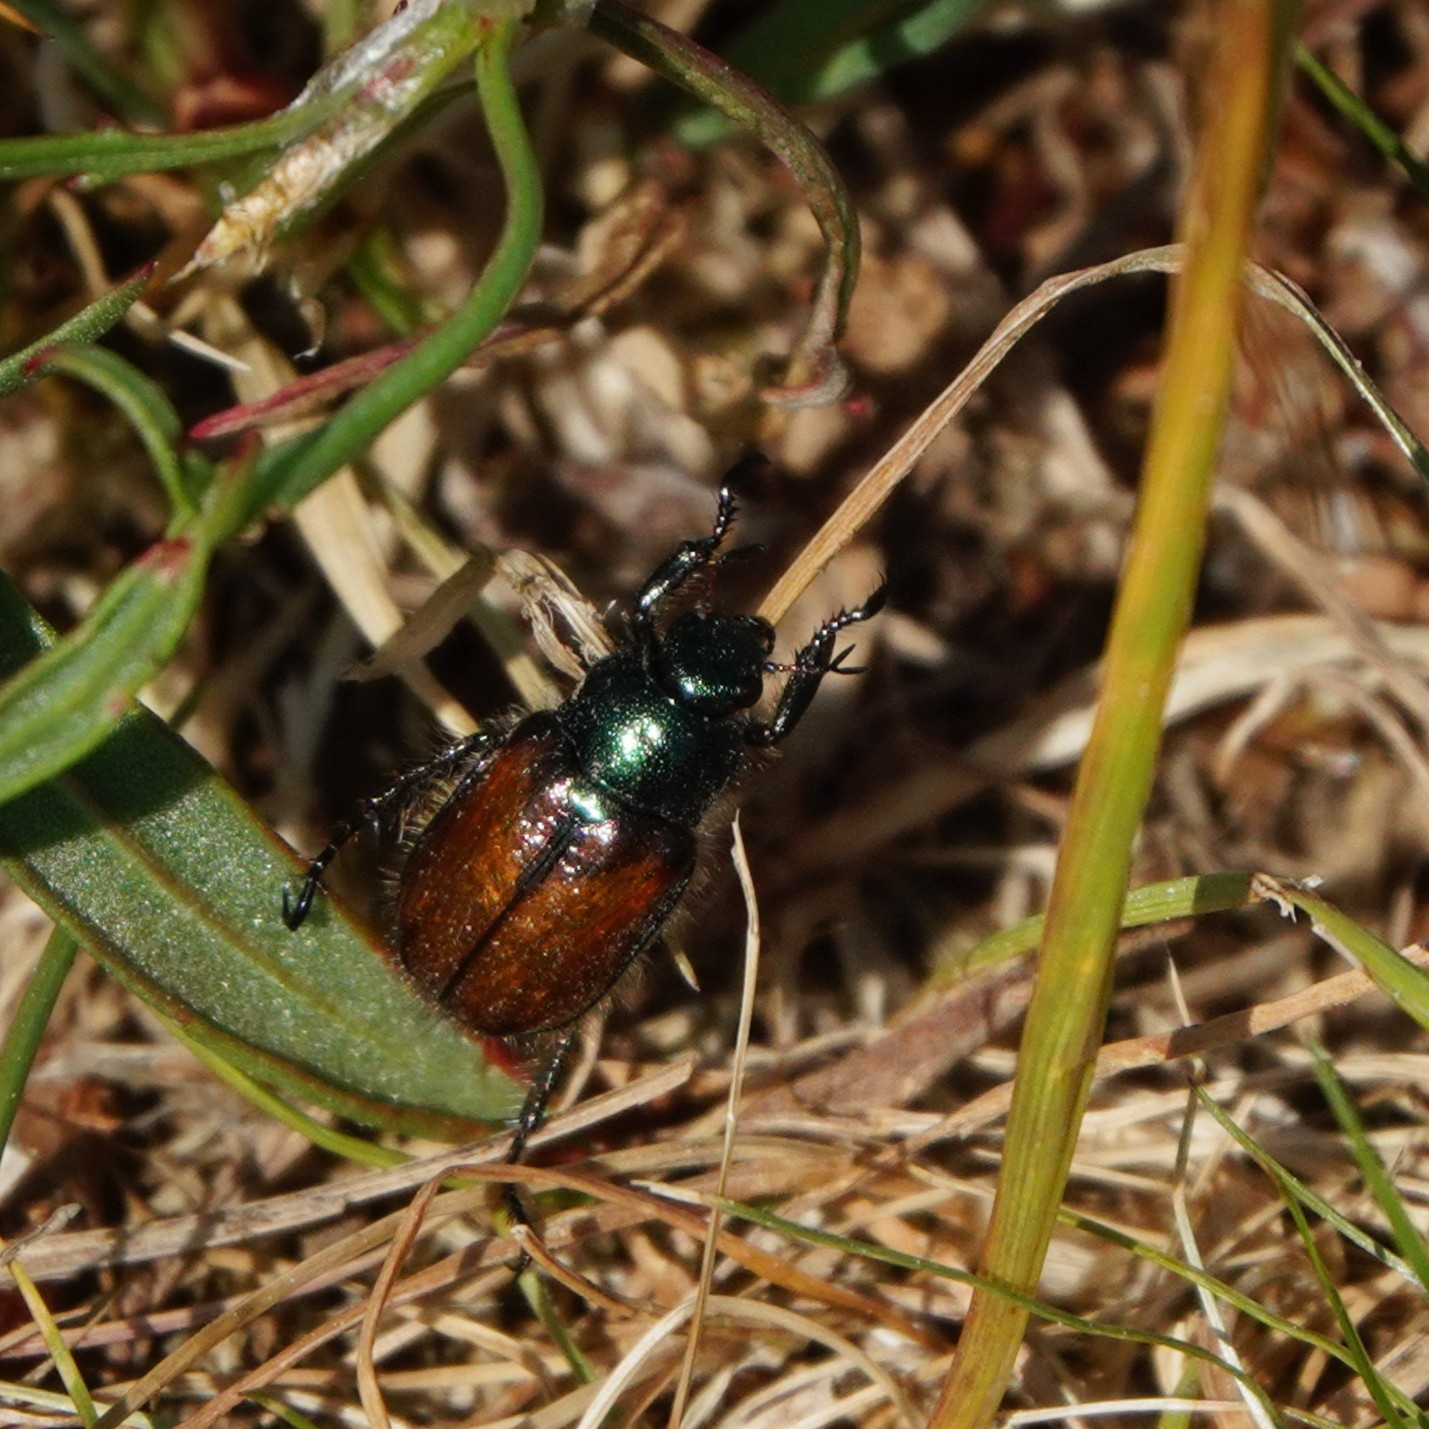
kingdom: Animalia
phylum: Arthropoda
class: Insecta
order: Coleoptera
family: Scarabaeidae
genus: Phyllopertha
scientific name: Phyllopertha horticola
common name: Garden chafer
